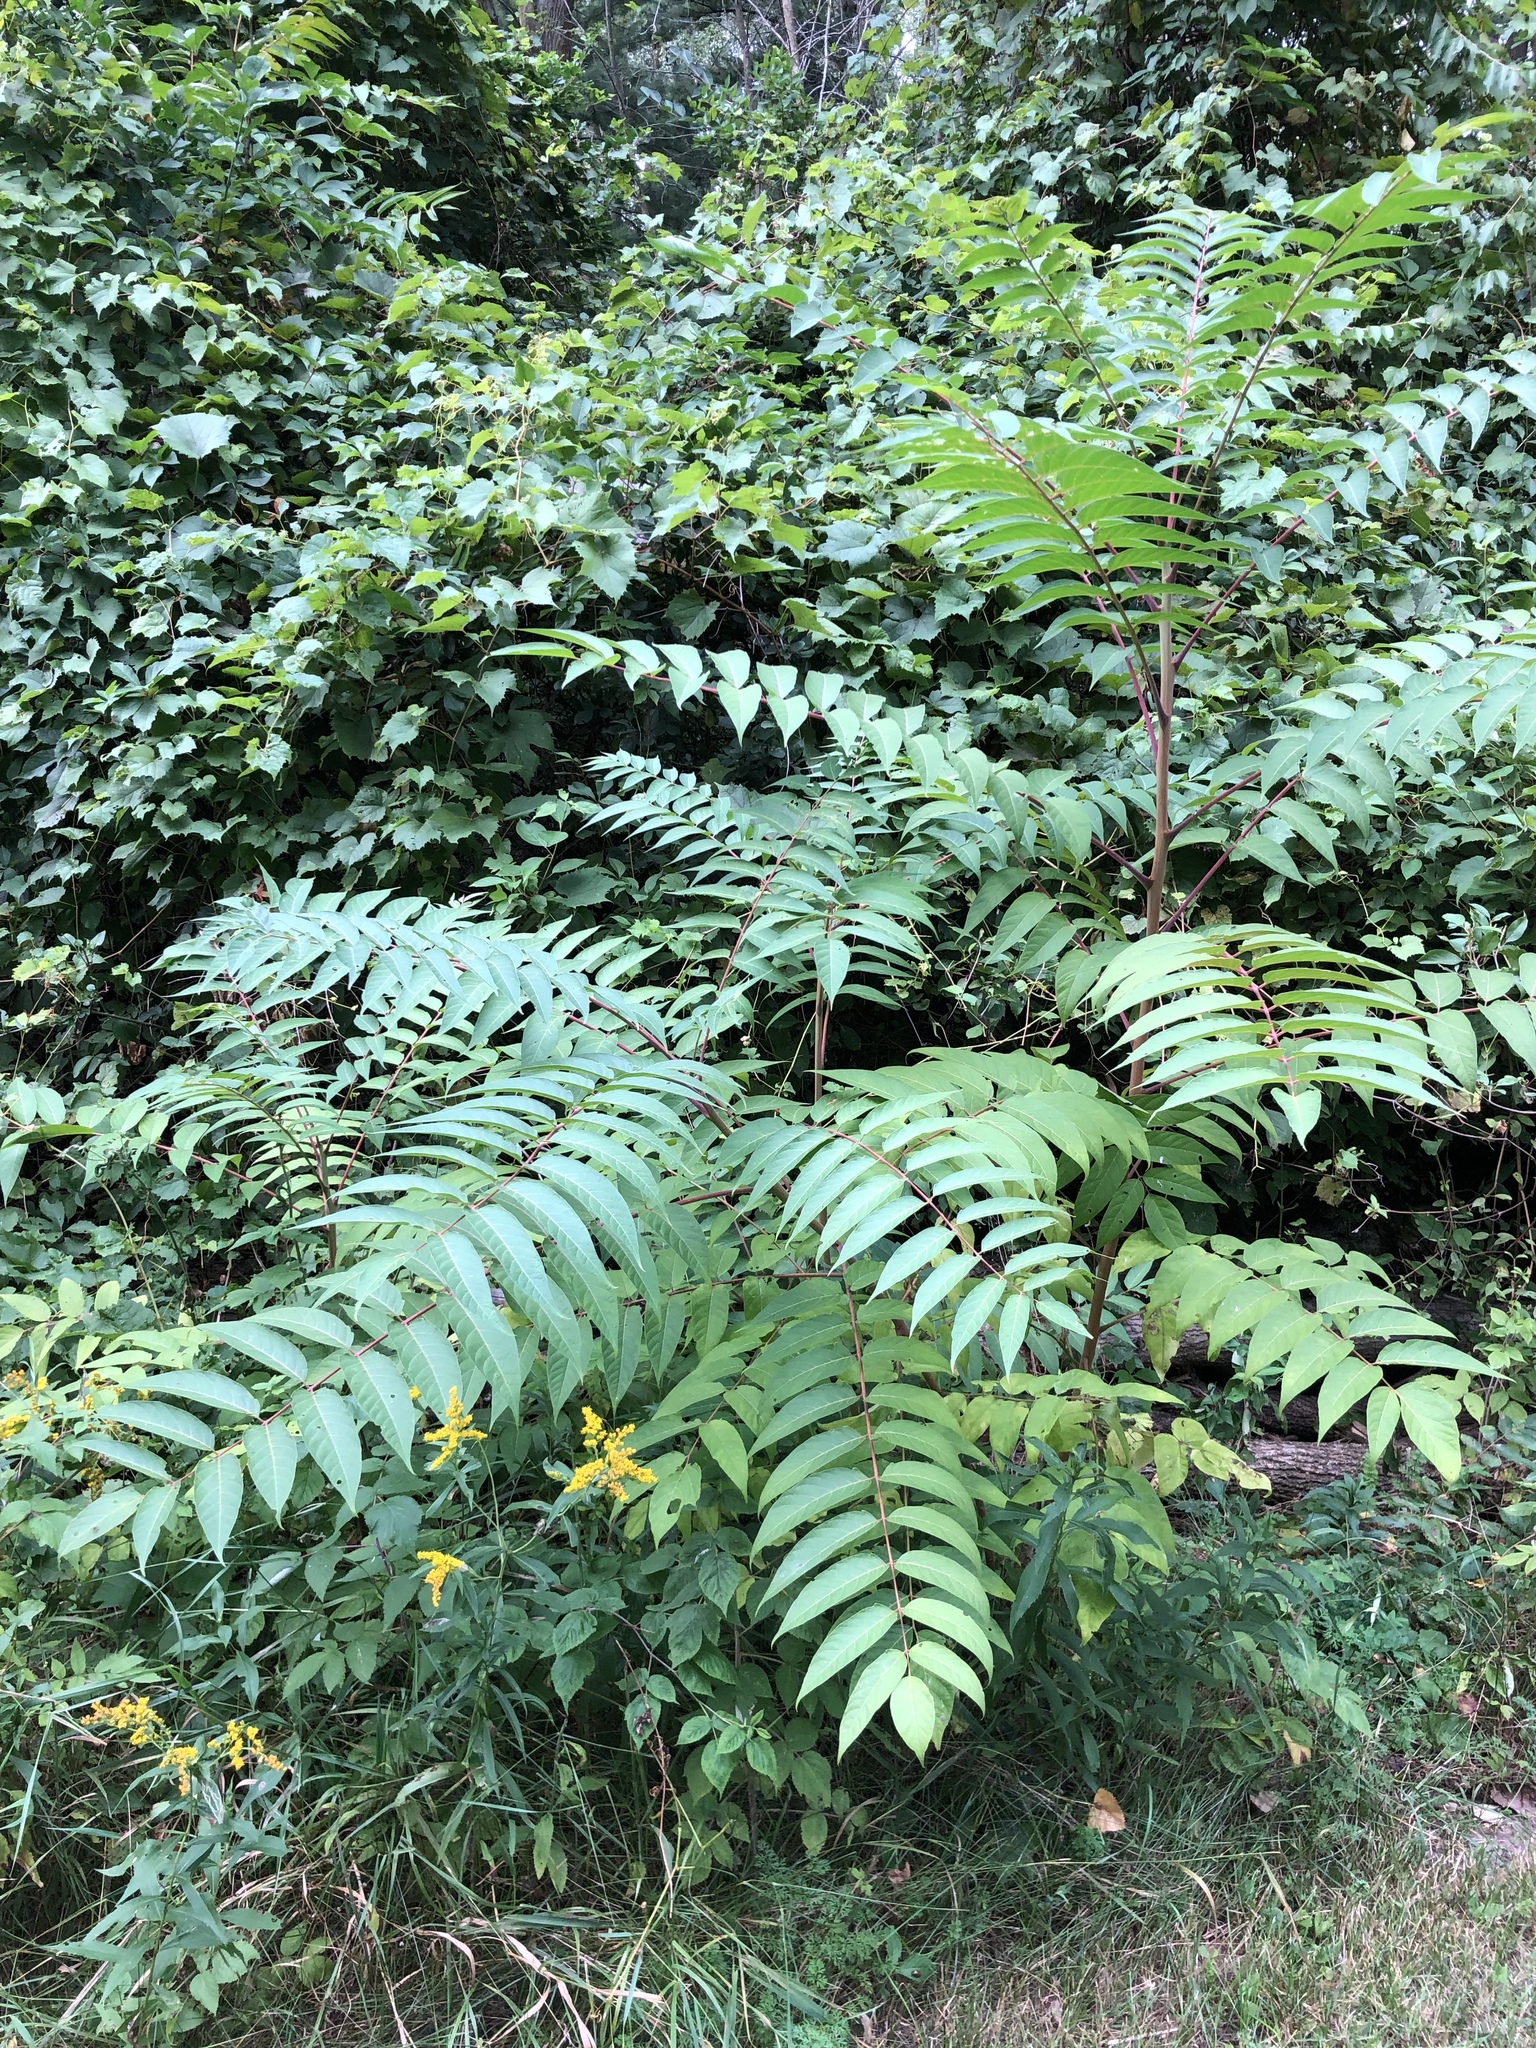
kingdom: Plantae
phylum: Tracheophyta
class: Magnoliopsida
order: Sapindales
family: Simaroubaceae
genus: Ailanthus
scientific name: Ailanthus altissima
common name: Tree-of-heaven
